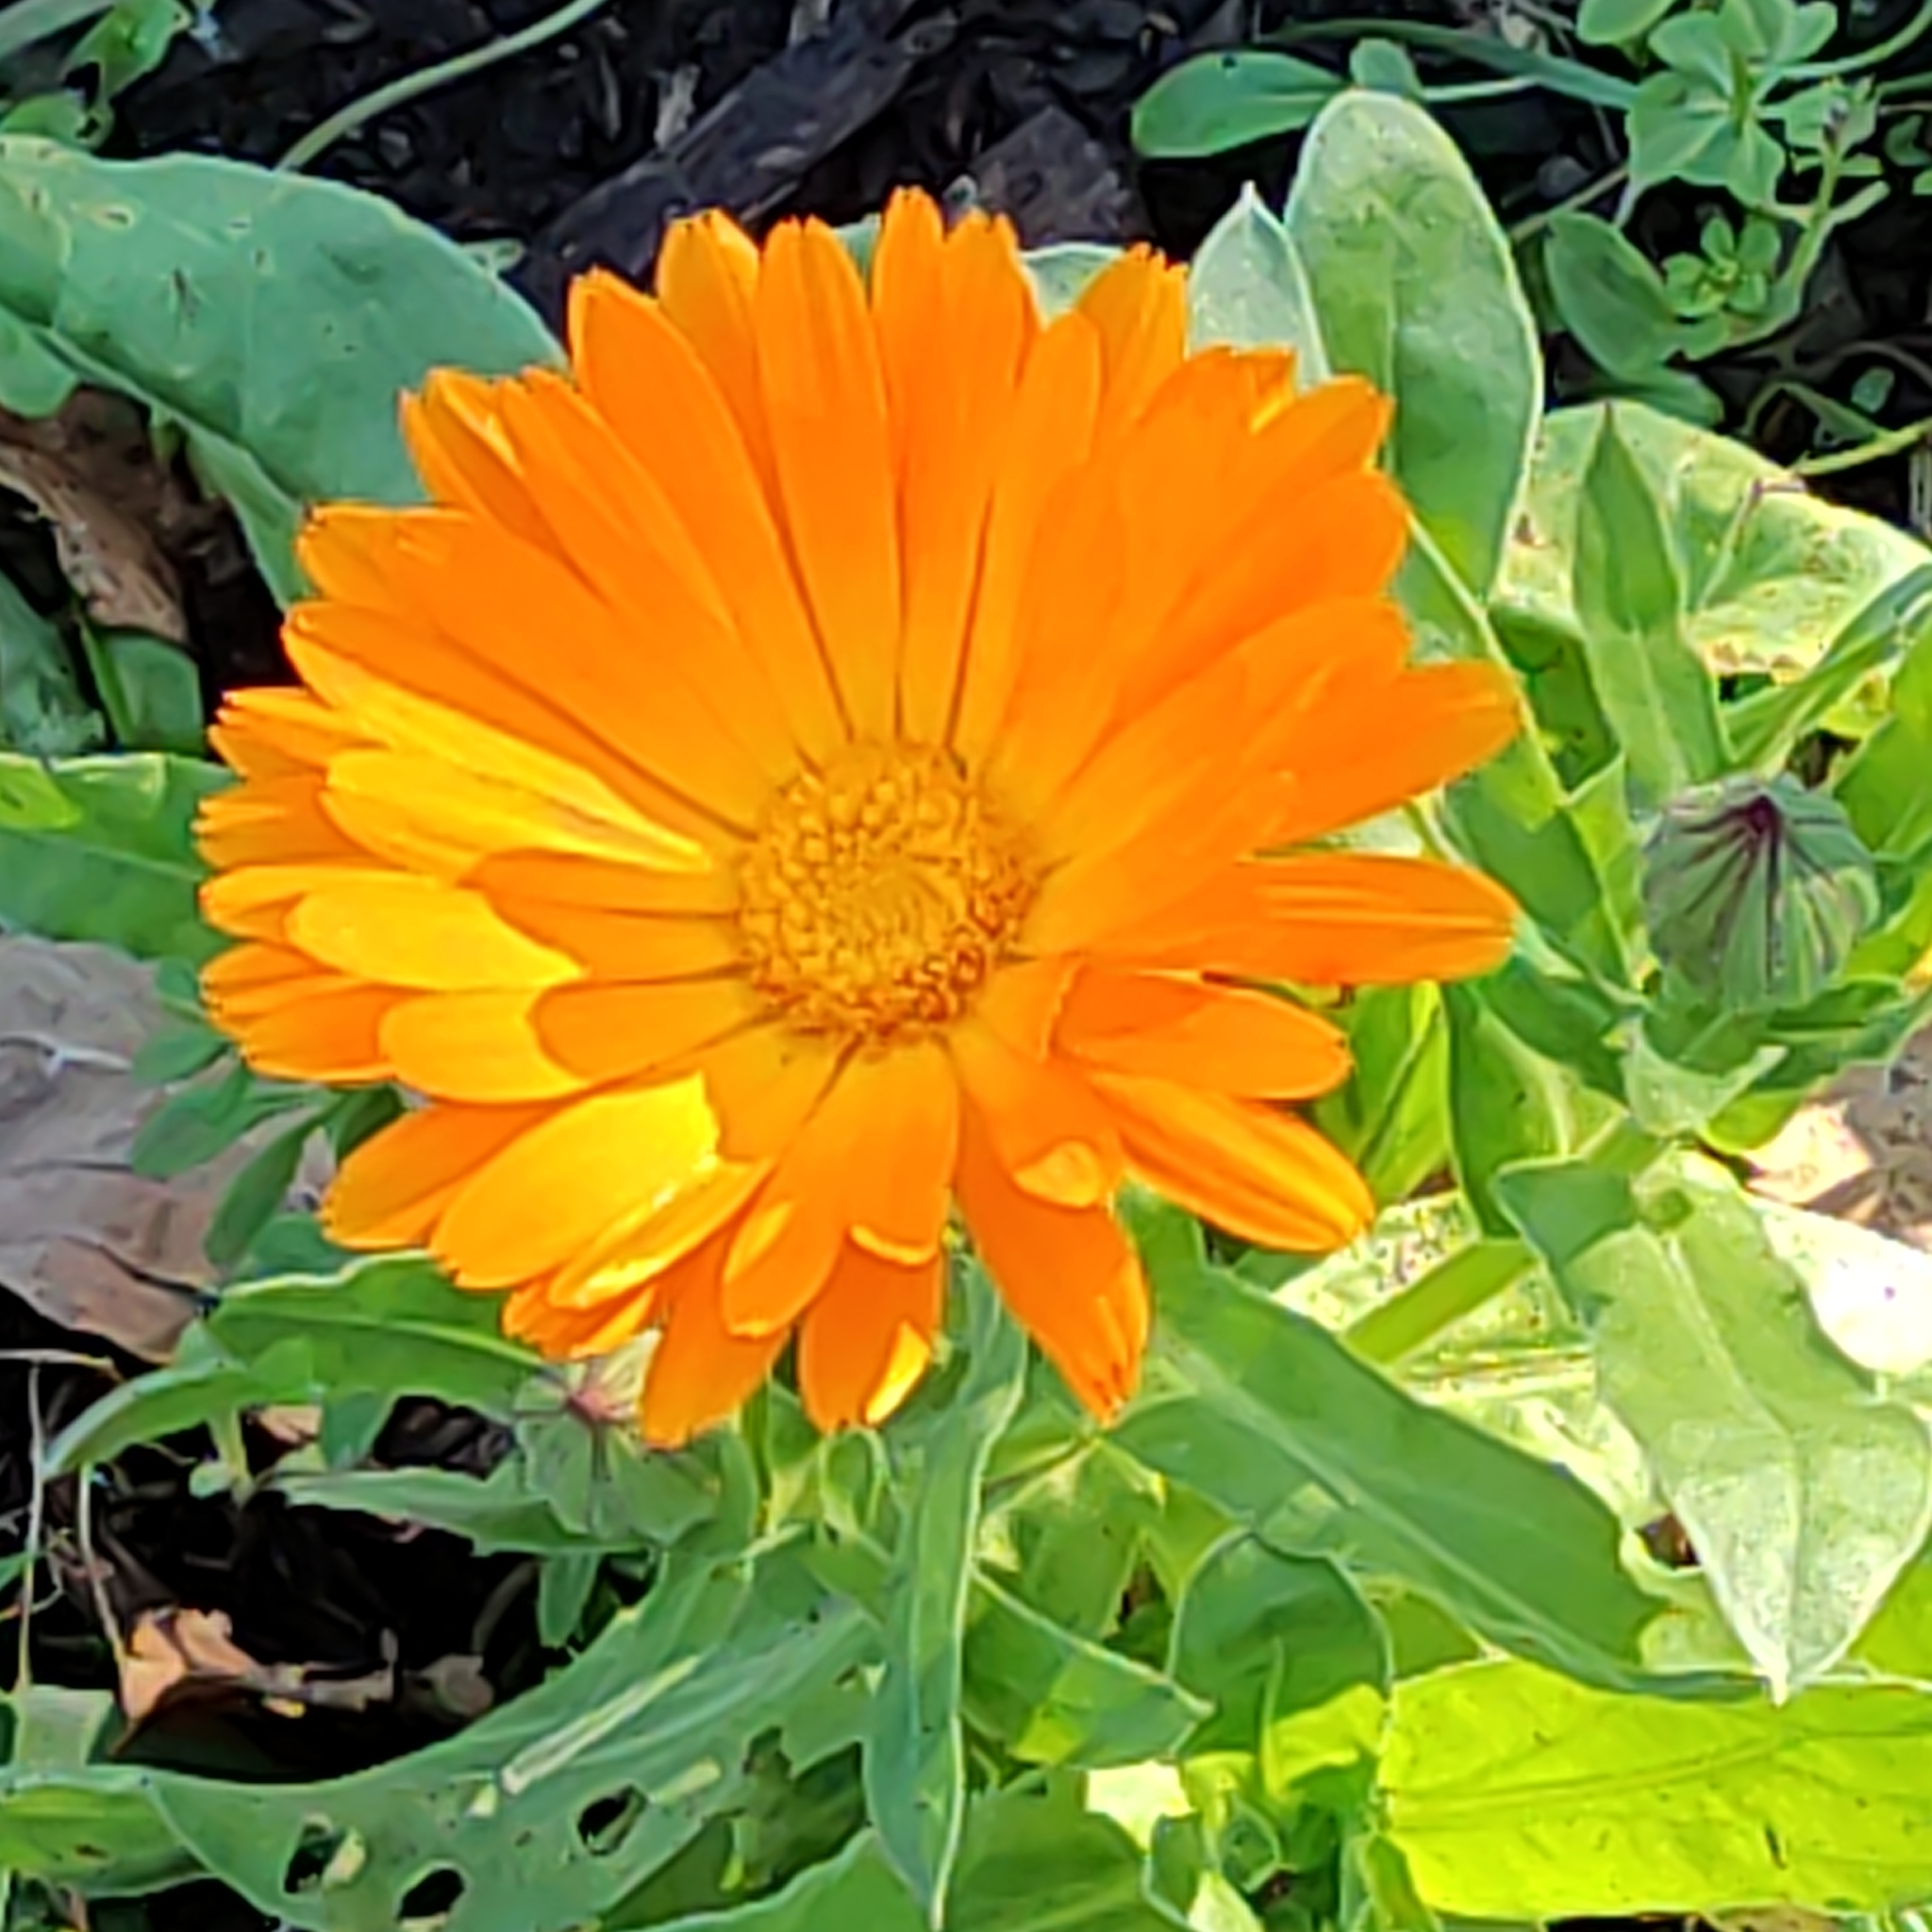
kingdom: Plantae
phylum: Tracheophyta
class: Magnoliopsida
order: Asterales
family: Asteraceae
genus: Calendula
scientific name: Calendula officinalis
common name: Pot marigold
